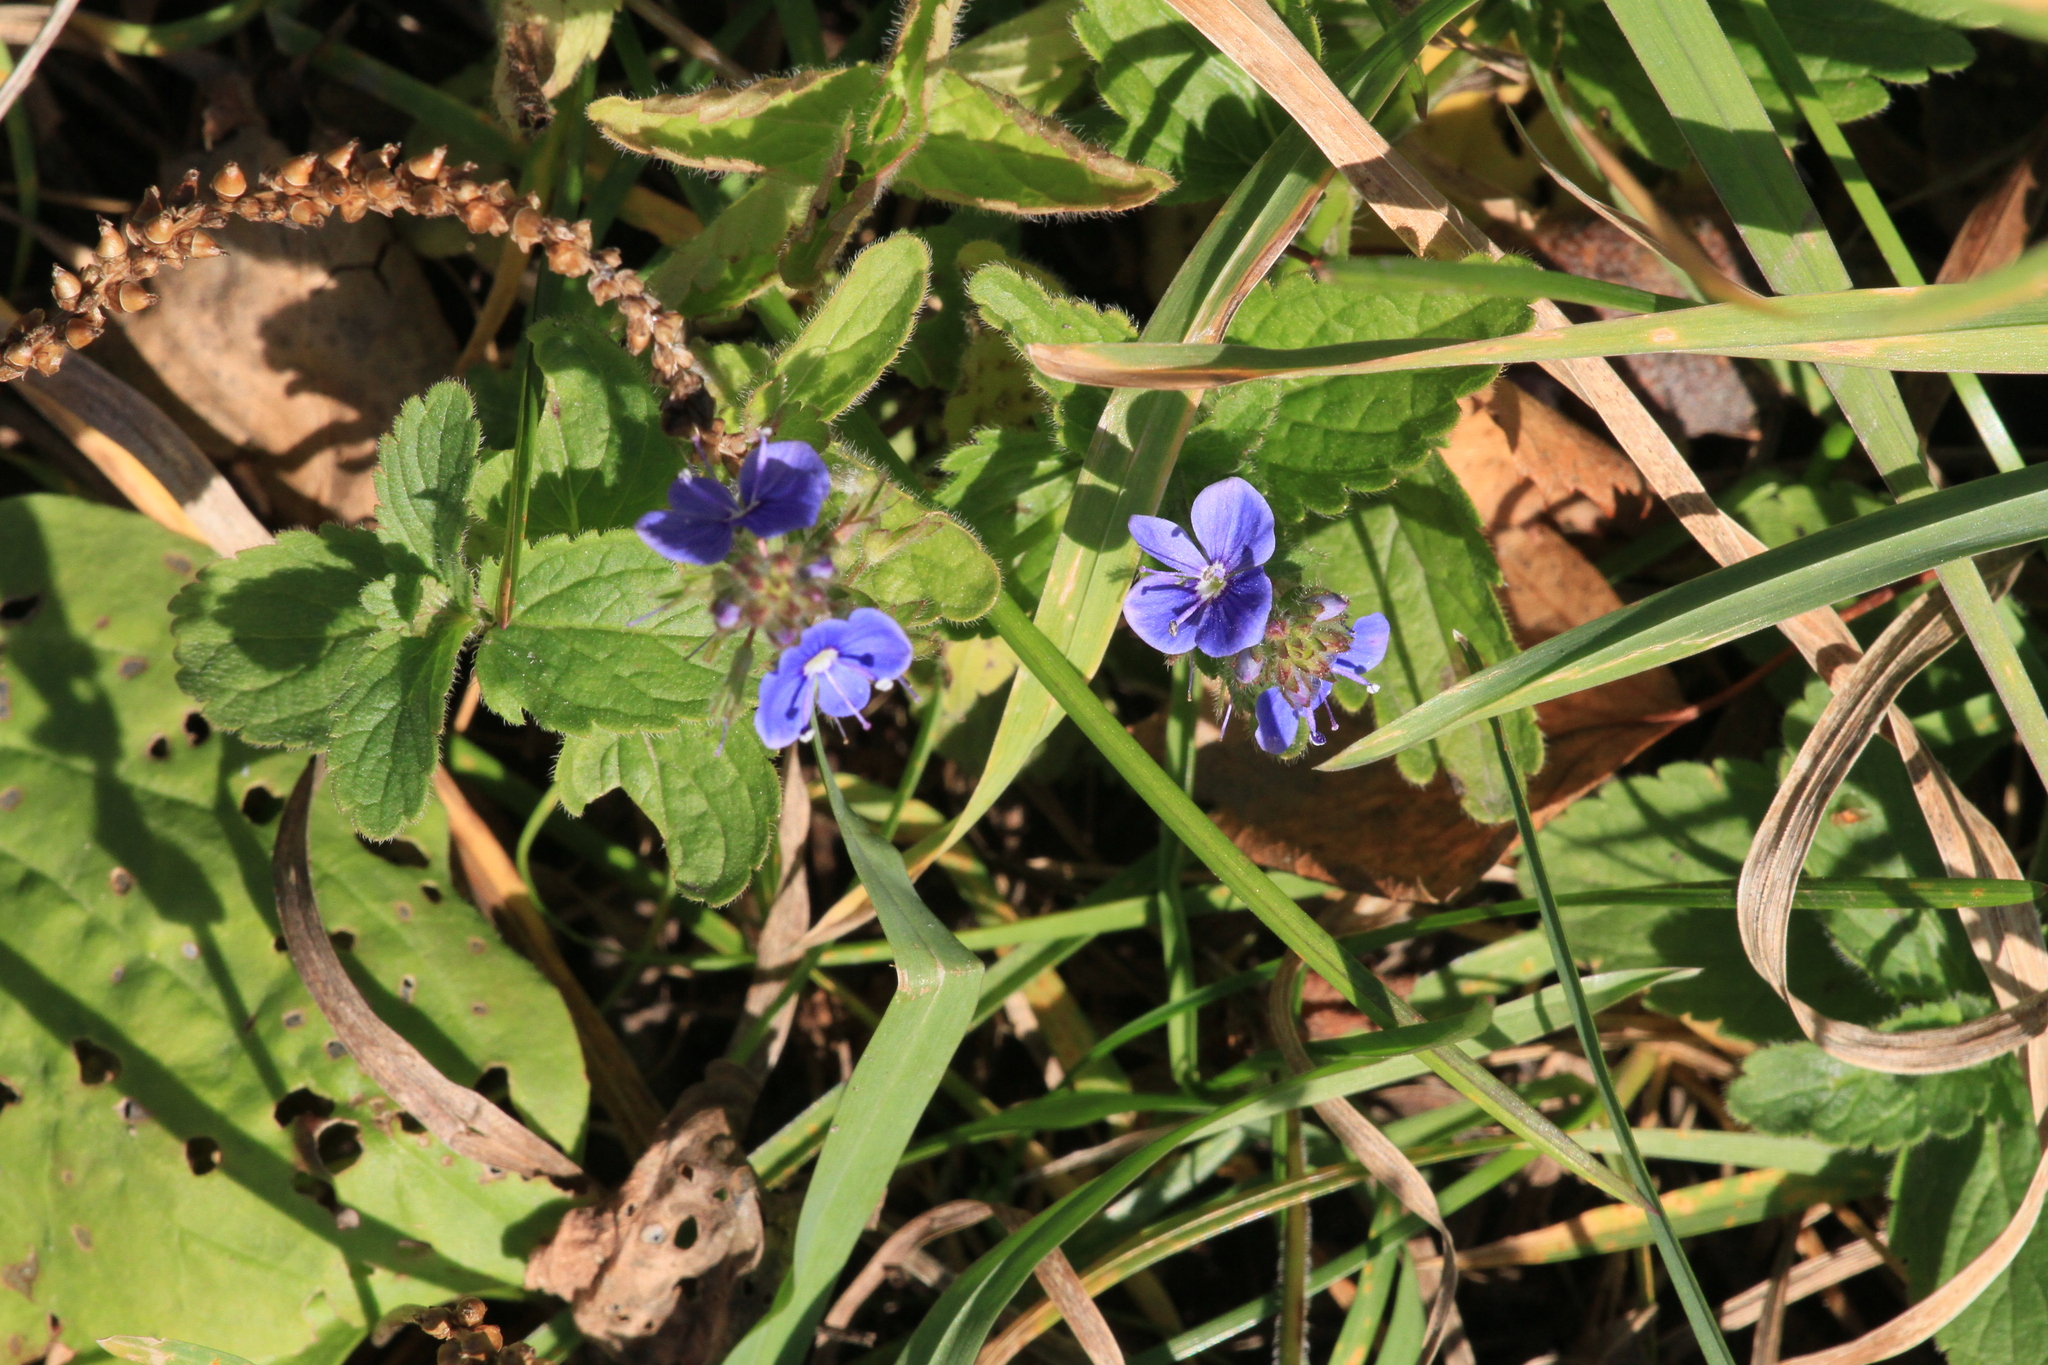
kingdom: Plantae
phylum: Tracheophyta
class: Magnoliopsida
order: Lamiales
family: Plantaginaceae
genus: Veronica
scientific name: Veronica chamaedrys
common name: Germander speedwell
